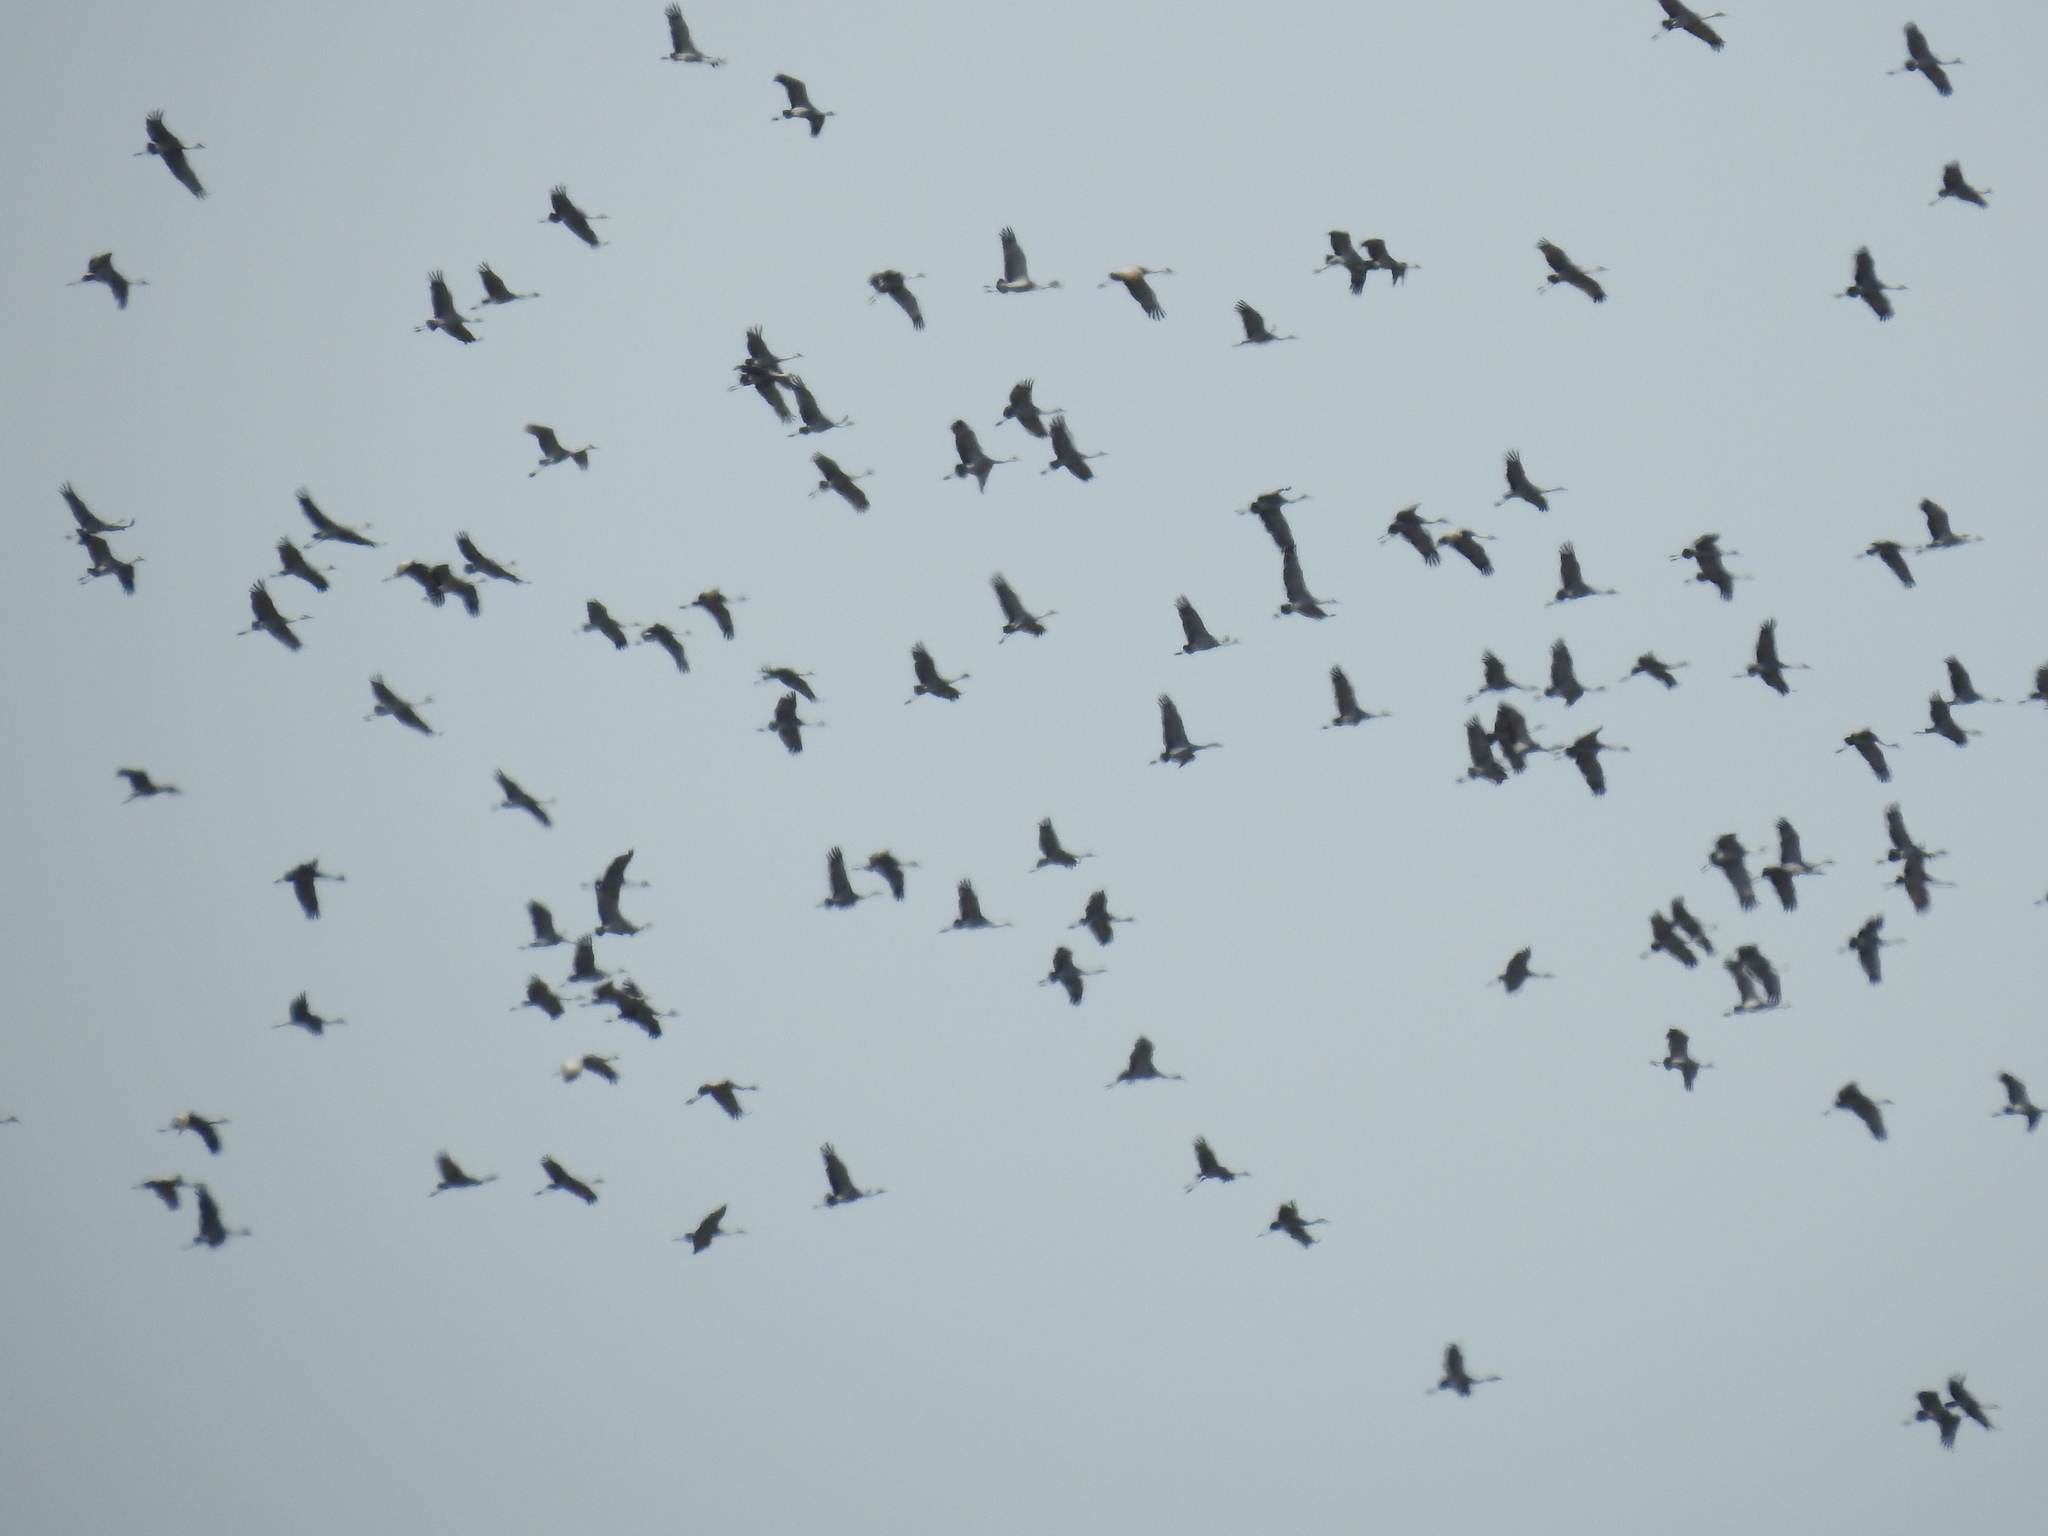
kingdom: Animalia
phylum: Chordata
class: Aves
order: Gruiformes
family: Gruidae
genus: Grus
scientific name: Grus canadensis
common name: Sandhill crane
